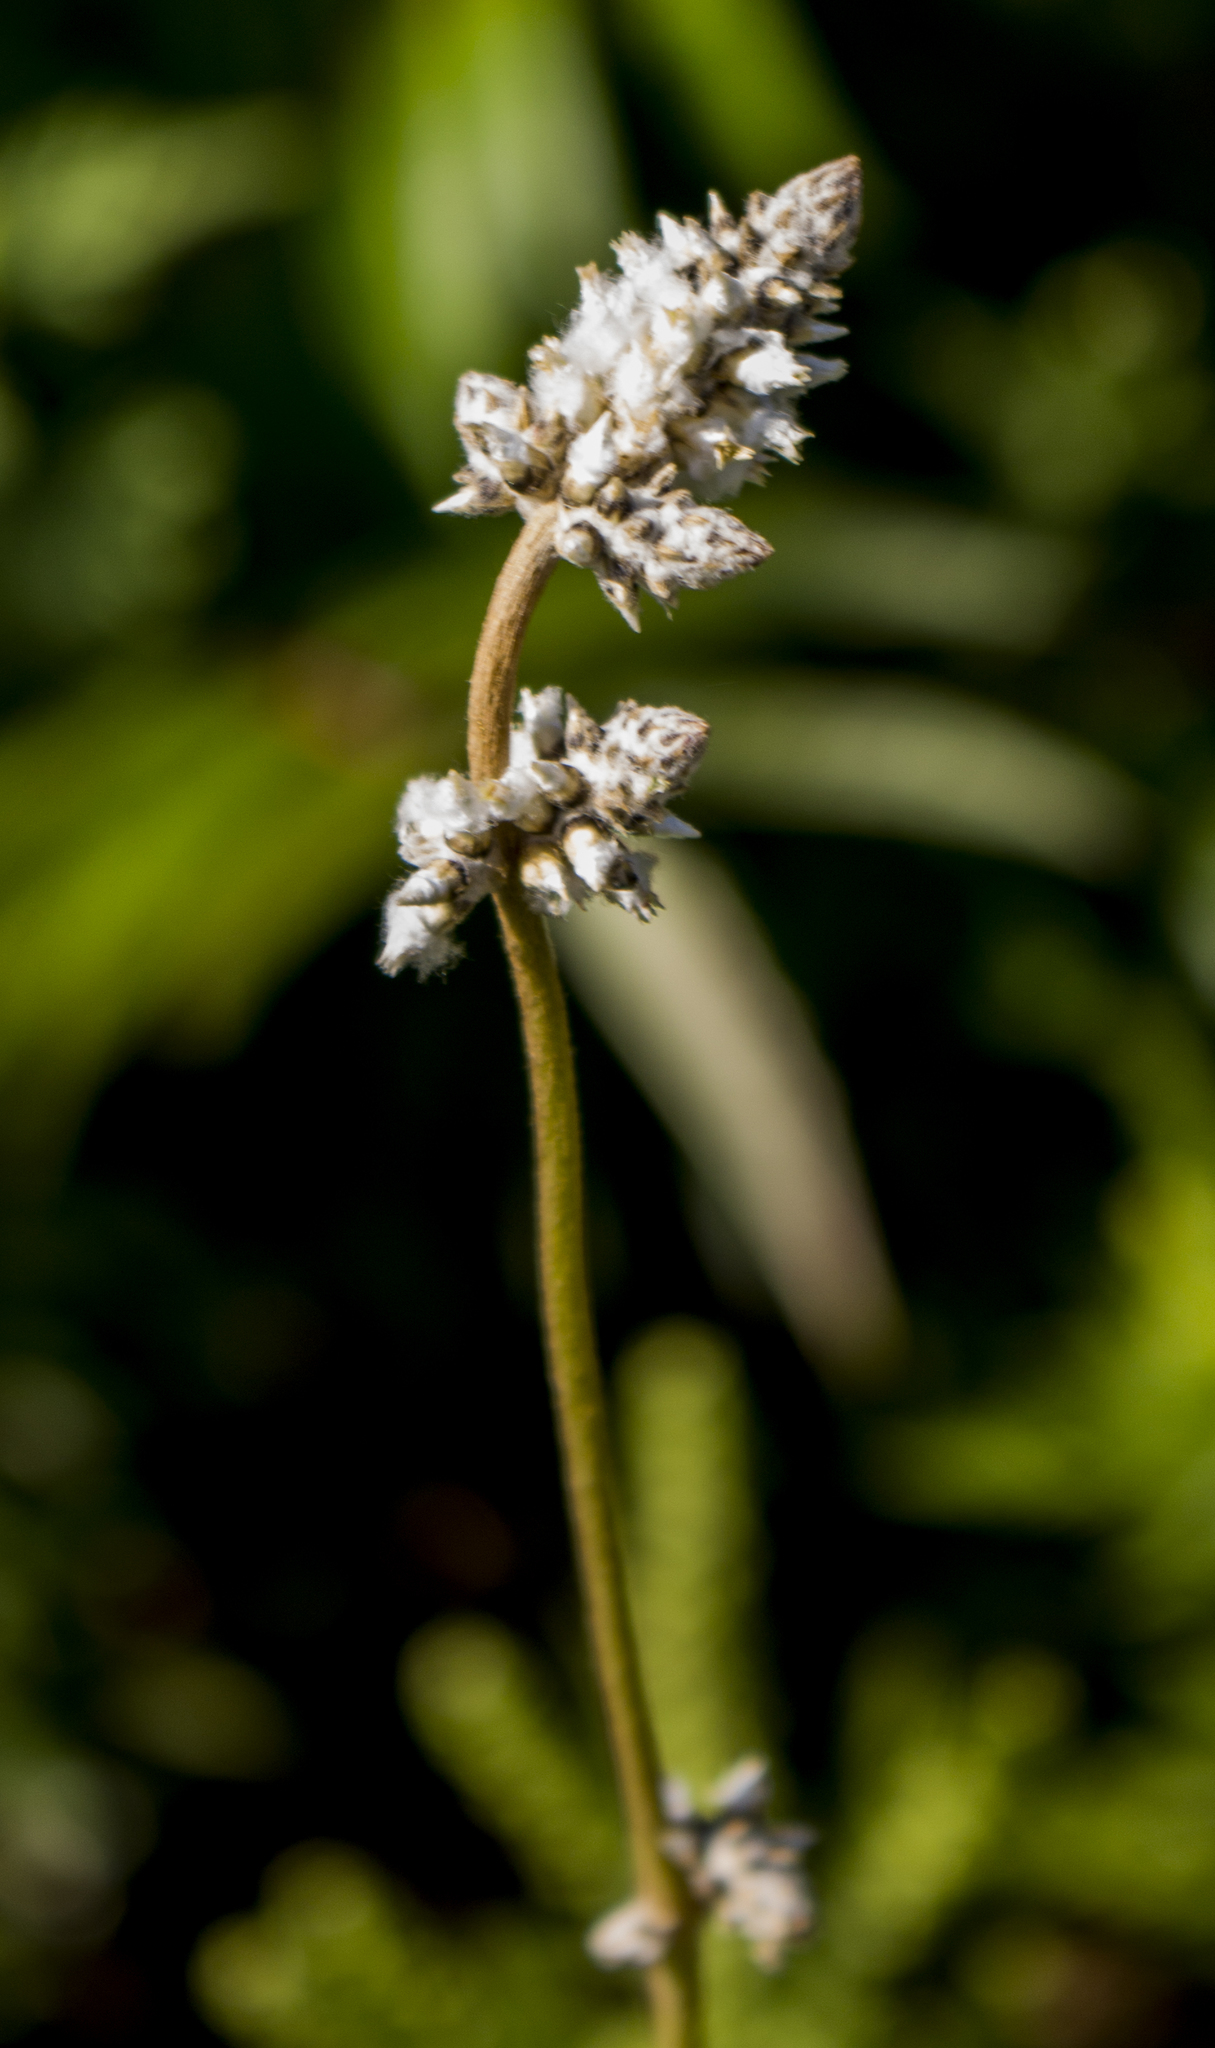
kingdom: Plantae
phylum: Tracheophyta
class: Magnoliopsida
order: Caryophyllales
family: Amaranthaceae
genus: Froelichia
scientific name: Froelichia floridana
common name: Florida snake-cotton
